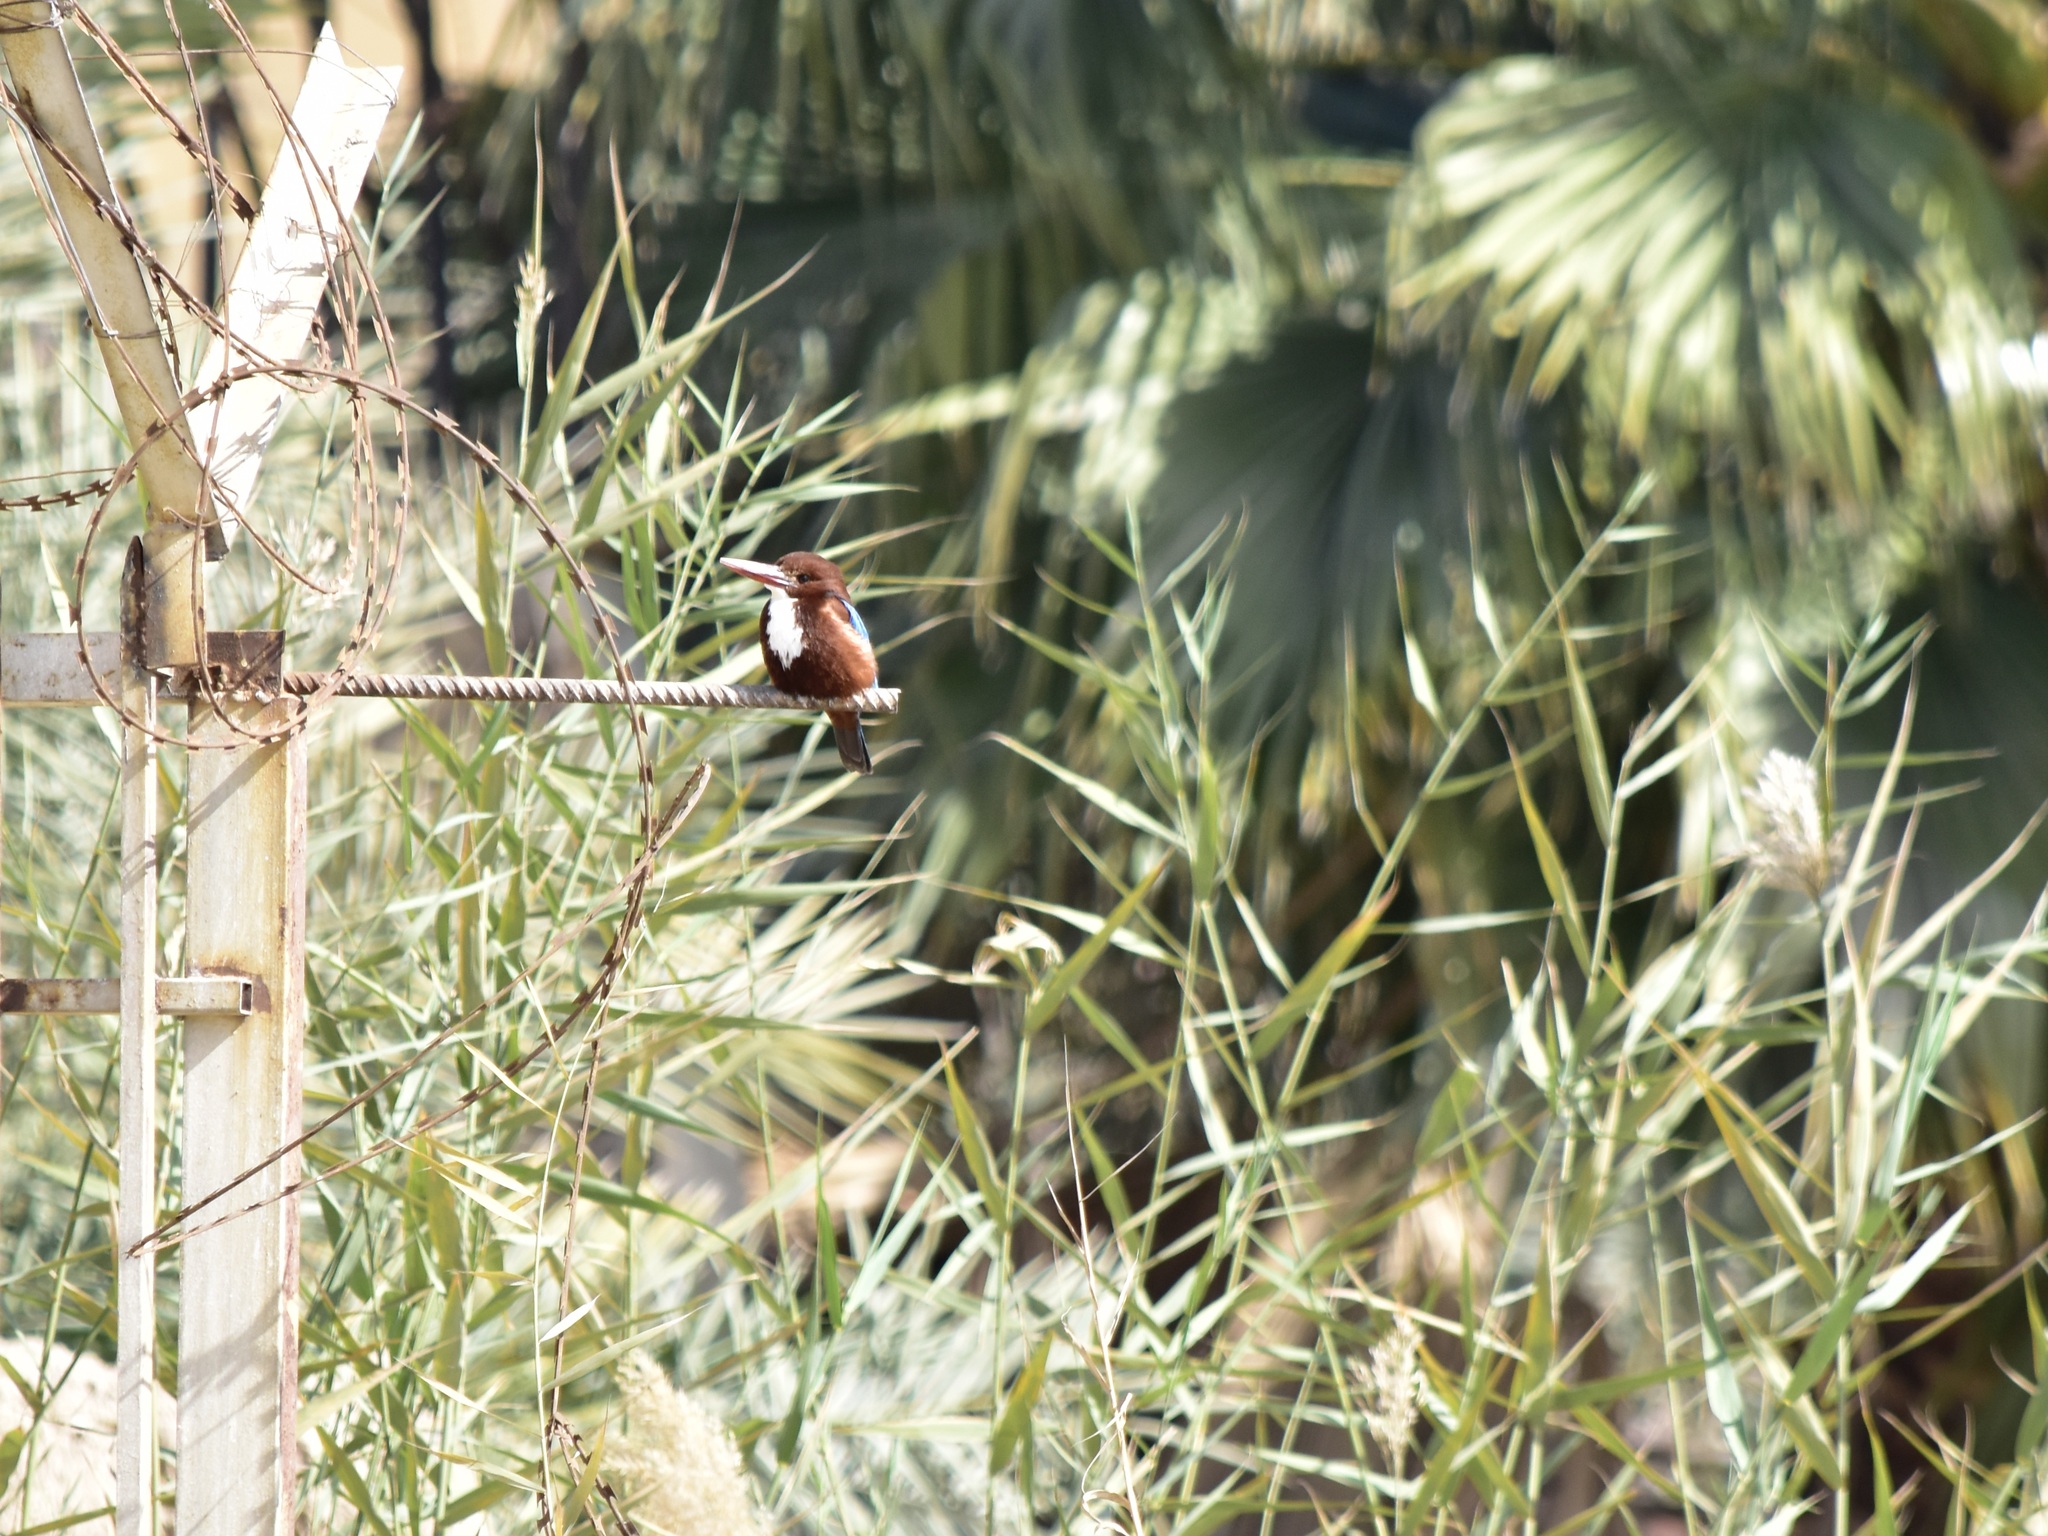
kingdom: Animalia
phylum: Chordata
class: Aves
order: Coraciiformes
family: Alcedinidae
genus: Halcyon
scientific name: Halcyon smyrnensis
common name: White-throated kingfisher
